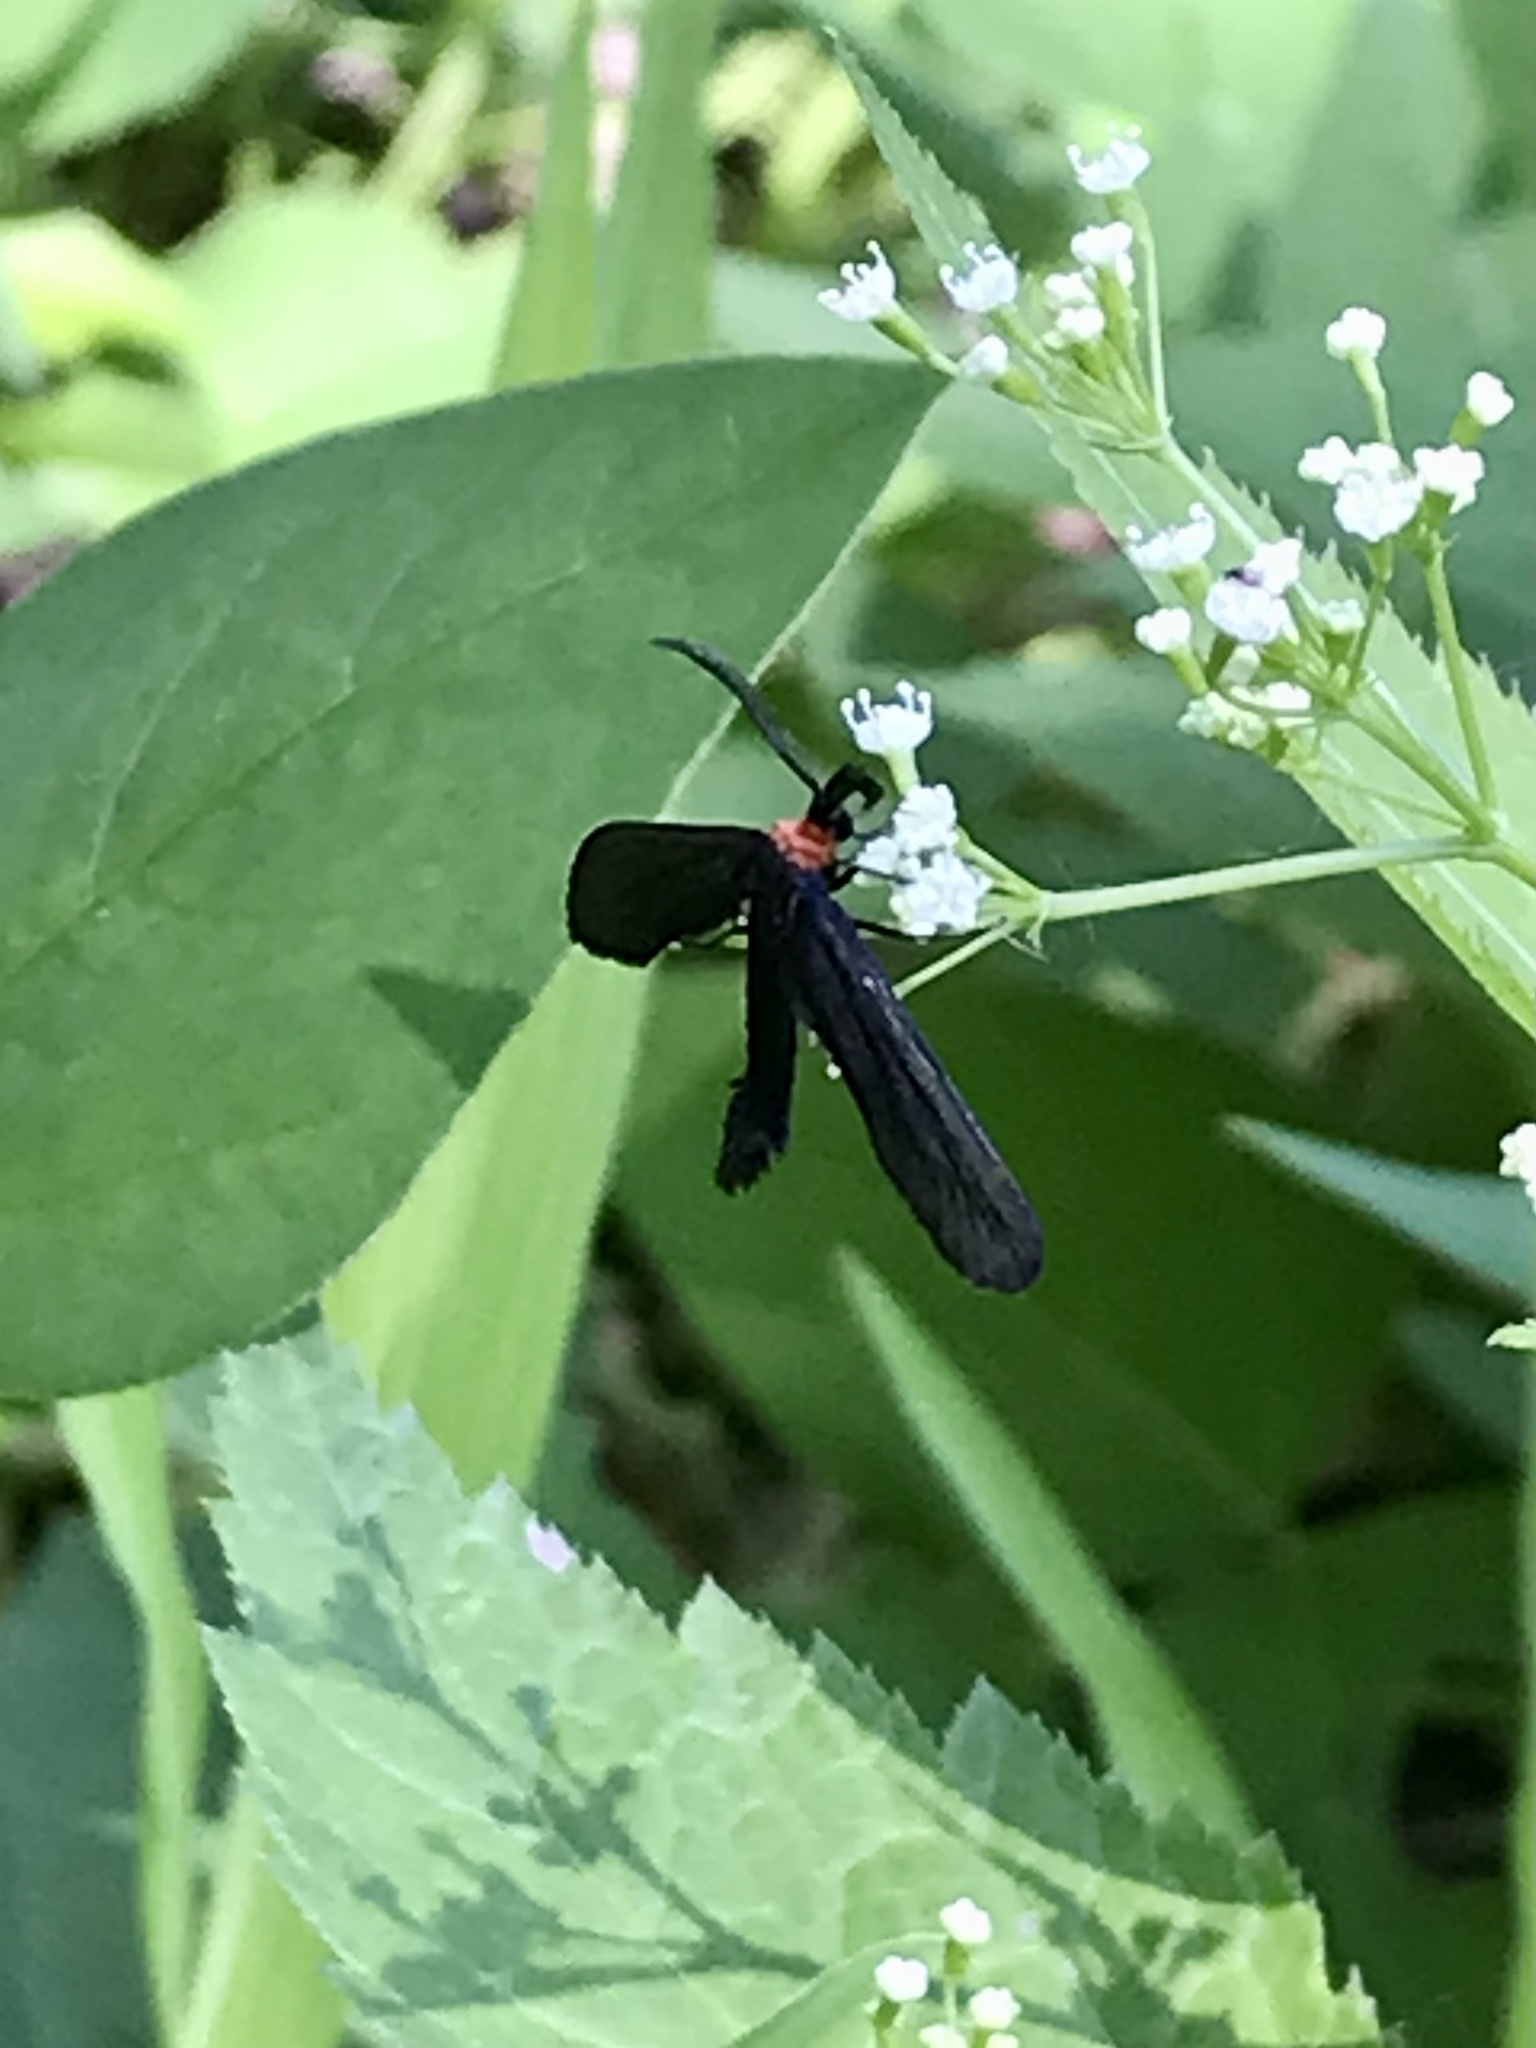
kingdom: Animalia
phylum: Arthropoda
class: Insecta
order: Lepidoptera
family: Zygaenidae
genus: Harrisina
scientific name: Harrisina americana
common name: Grapeleaf skeletonizer moth
